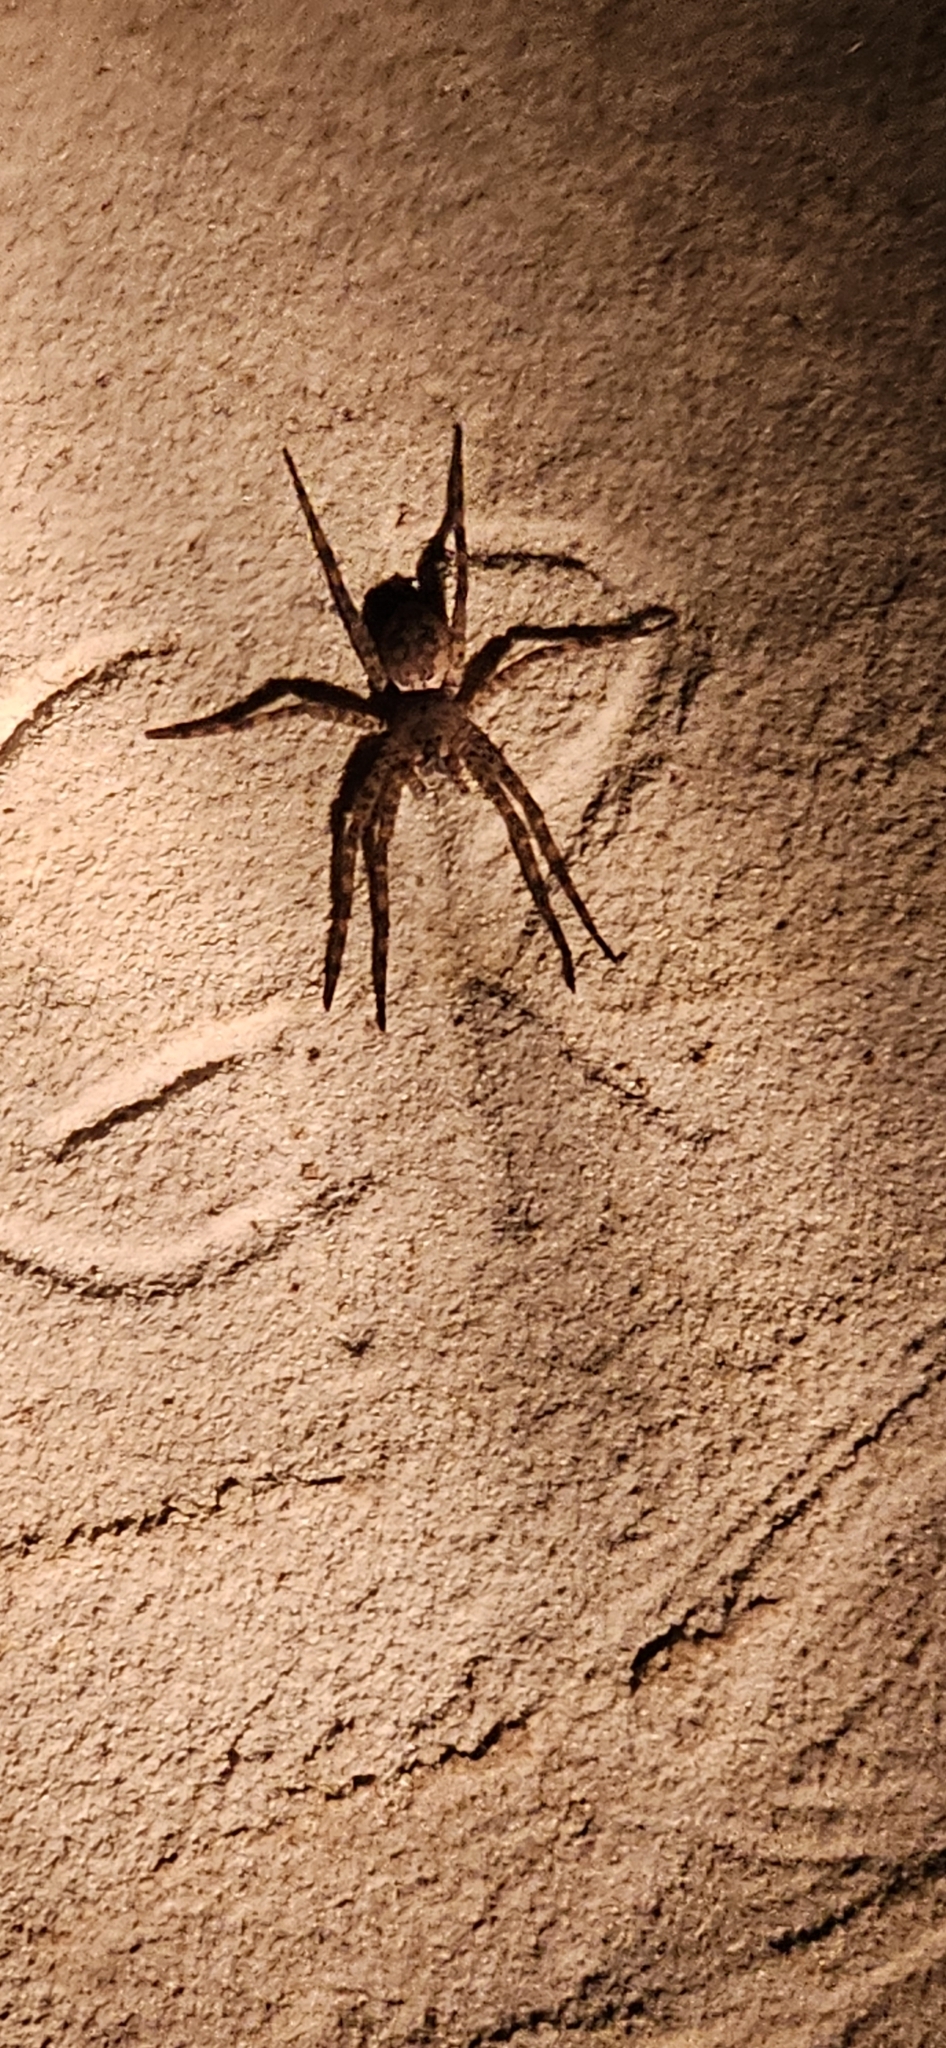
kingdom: Animalia
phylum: Arthropoda
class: Arachnida
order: Araneae
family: Pisauridae
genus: Dolomedes
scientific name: Dolomedes tenebrosus
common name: Dark fishing spider
